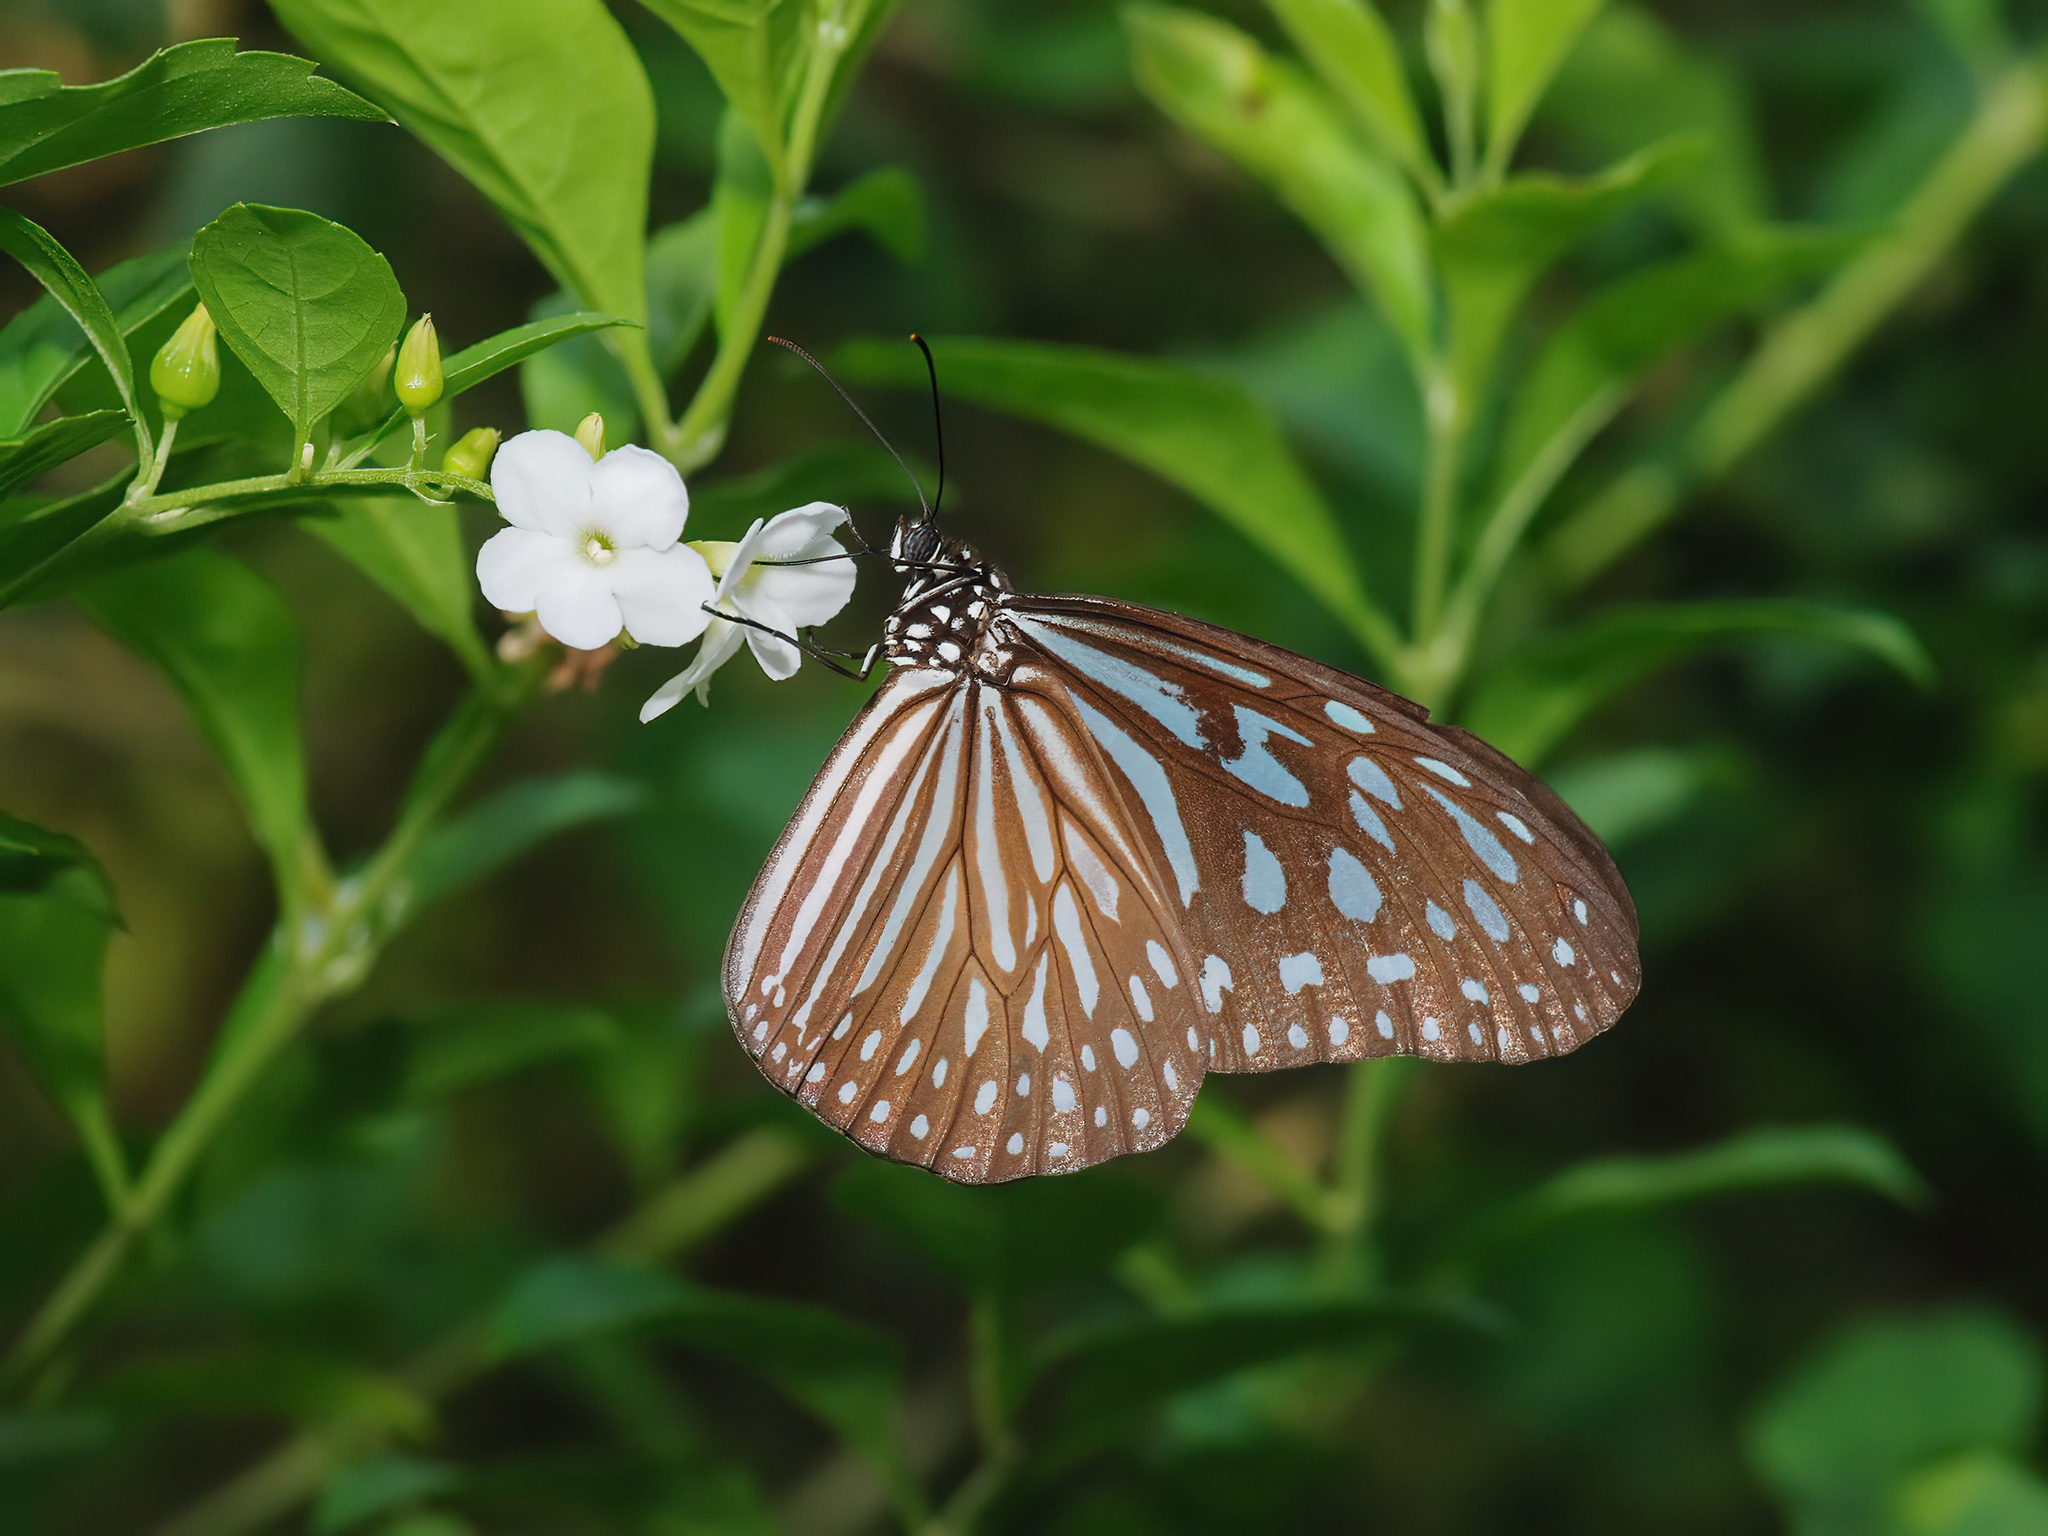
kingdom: Animalia
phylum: Arthropoda
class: Insecta
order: Lepidoptera
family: Nymphalidae
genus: Ideopsis
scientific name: Ideopsis vulgaris
